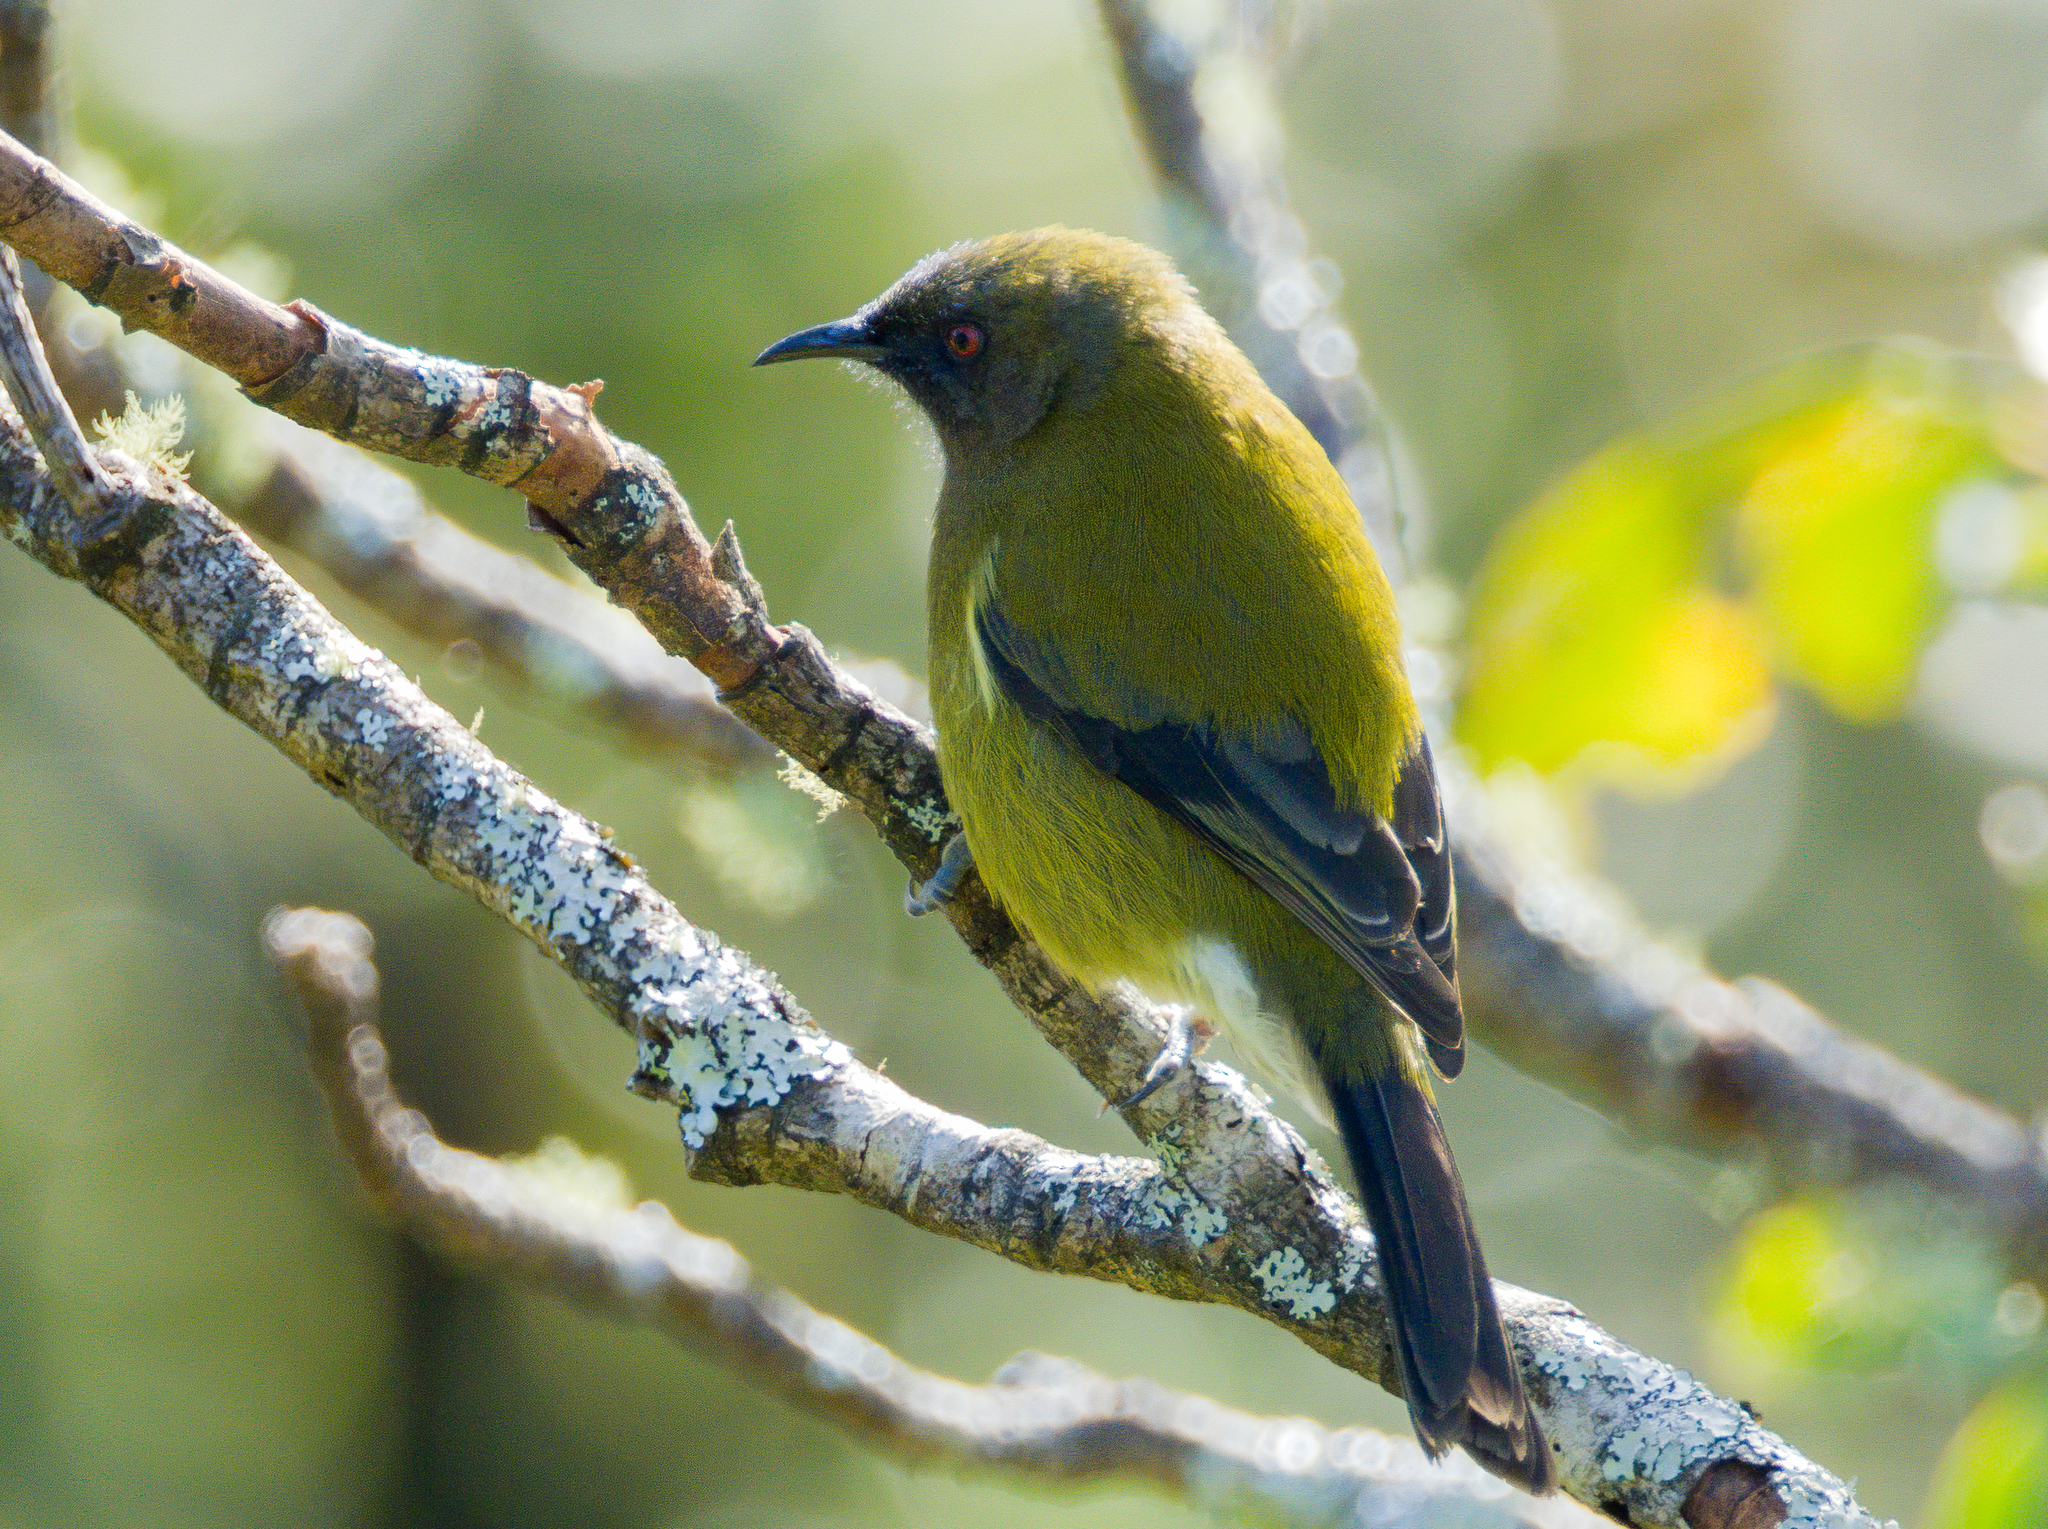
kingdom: Animalia
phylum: Chordata
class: Aves
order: Passeriformes
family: Meliphagidae
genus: Anthornis
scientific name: Anthornis melanura
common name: New zealand bellbird
